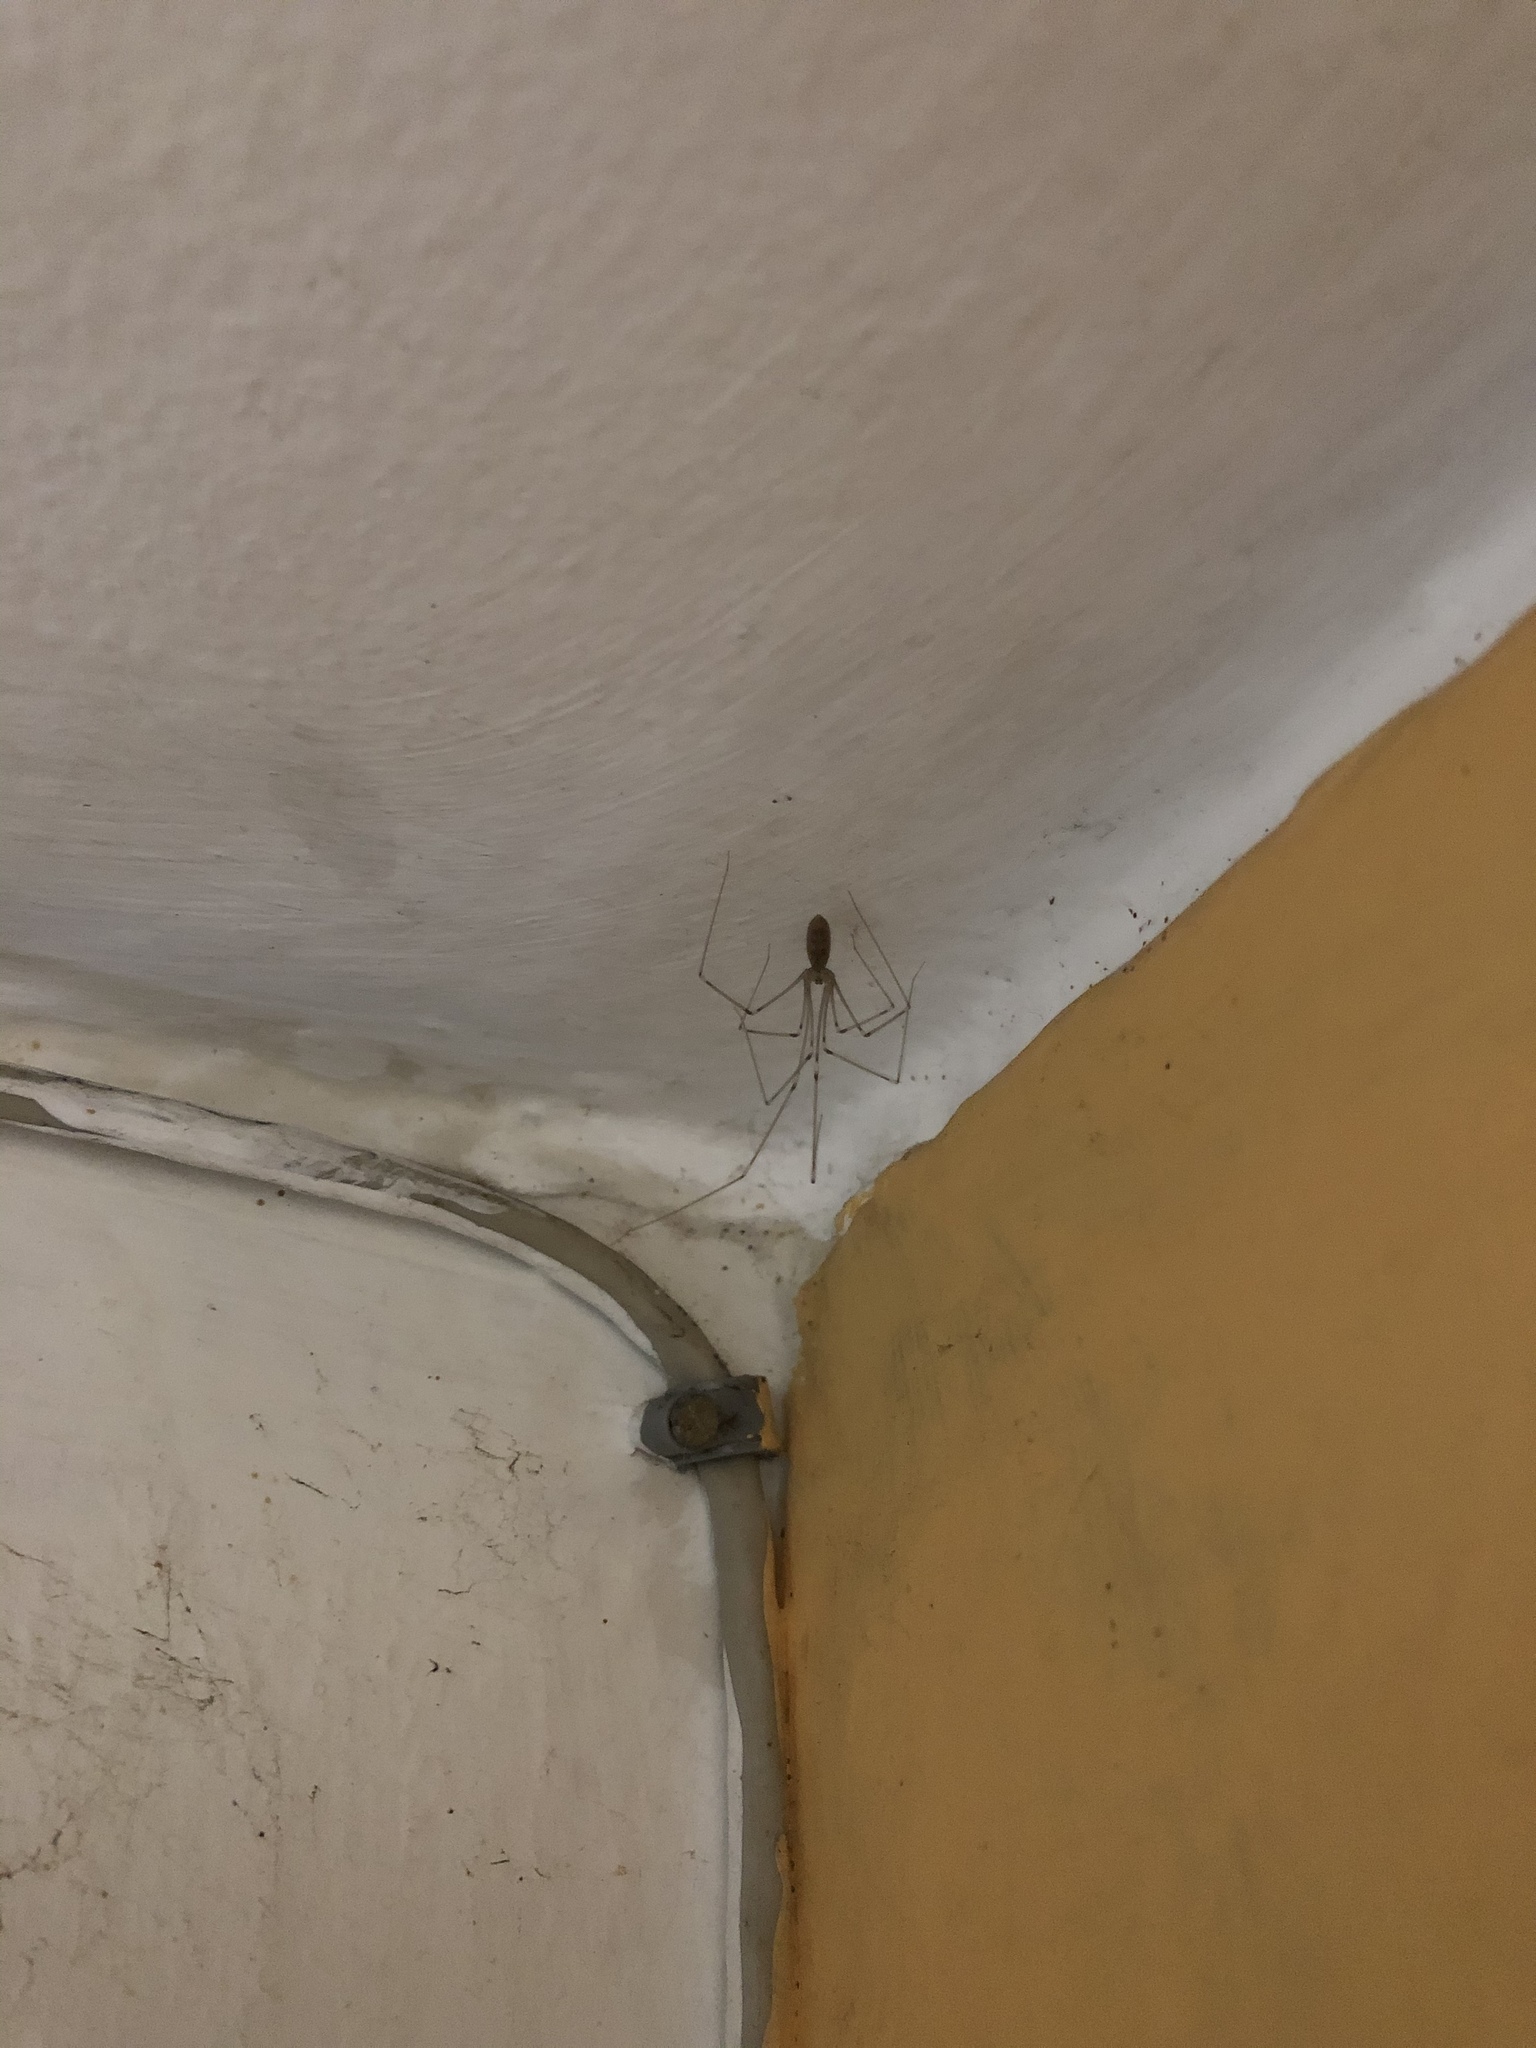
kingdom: Animalia
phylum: Arthropoda
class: Arachnida
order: Araneae
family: Pholcidae
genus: Pholcus
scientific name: Pholcus phalangioides
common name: Longbodied cellar spider
